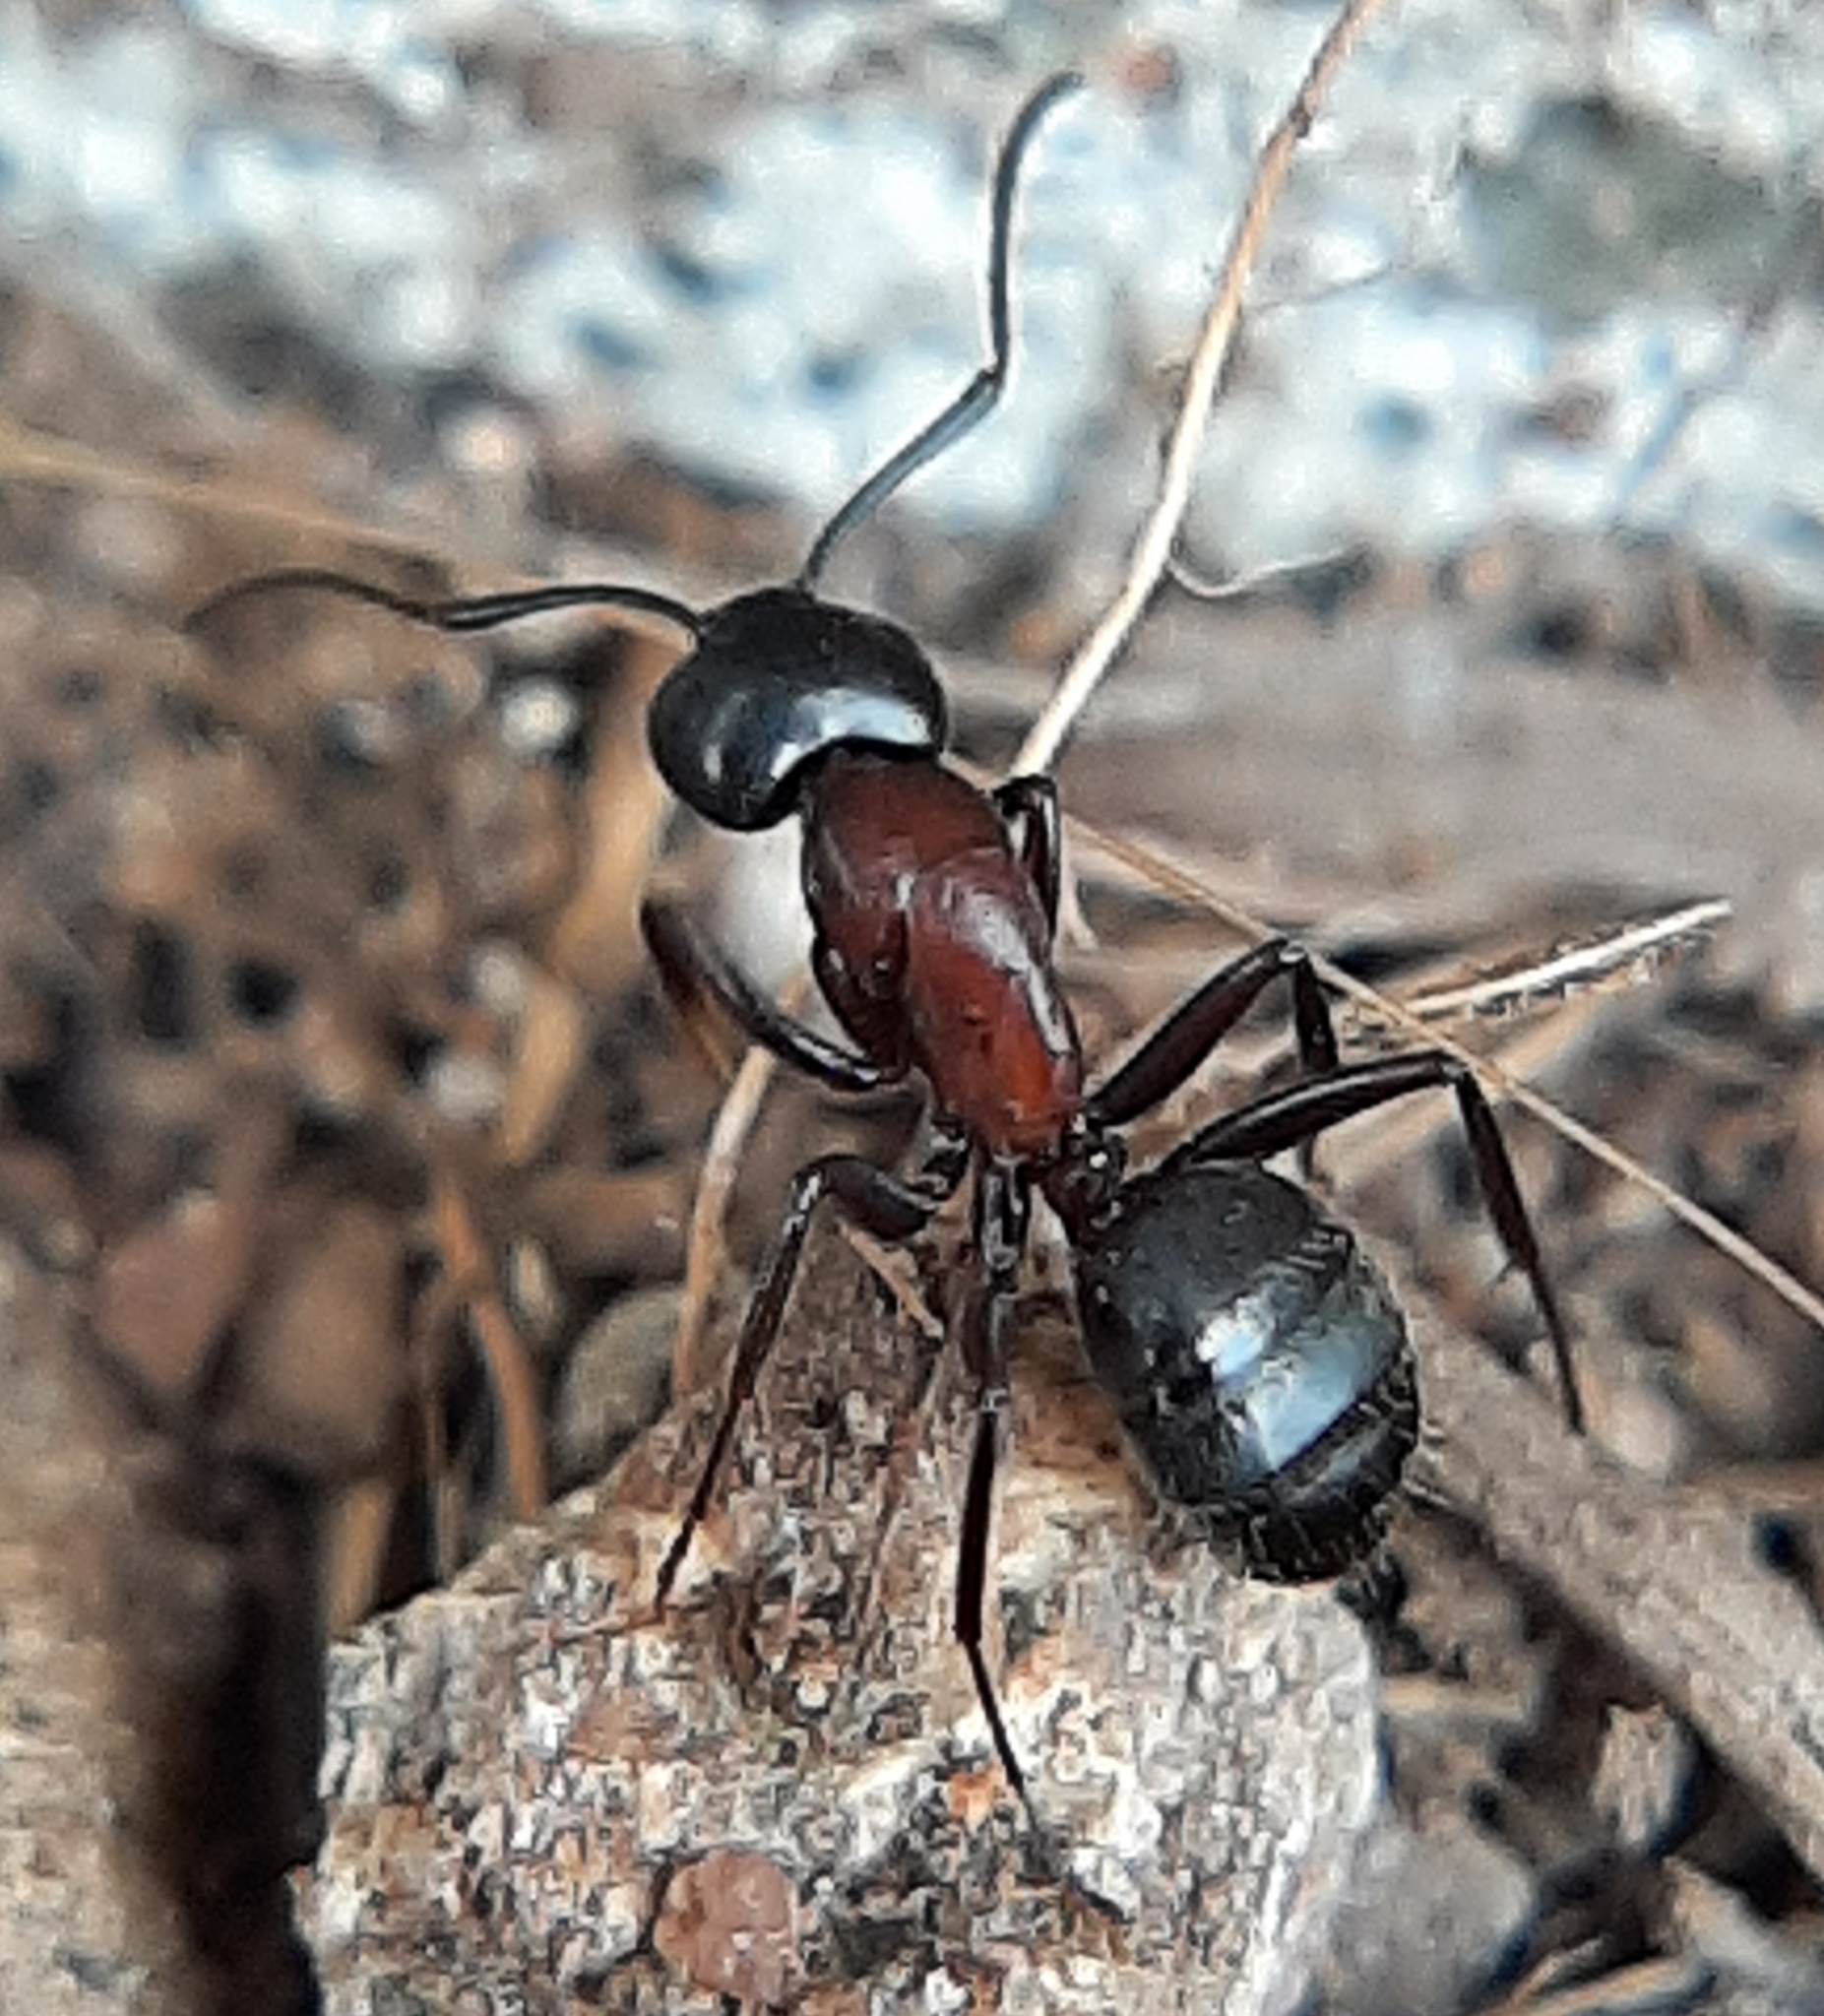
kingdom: Animalia
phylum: Arthropoda
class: Insecta
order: Hymenoptera
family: Formicidae
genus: Camponotus
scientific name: Camponotus novaeboracensis
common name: New york carpenter ant
